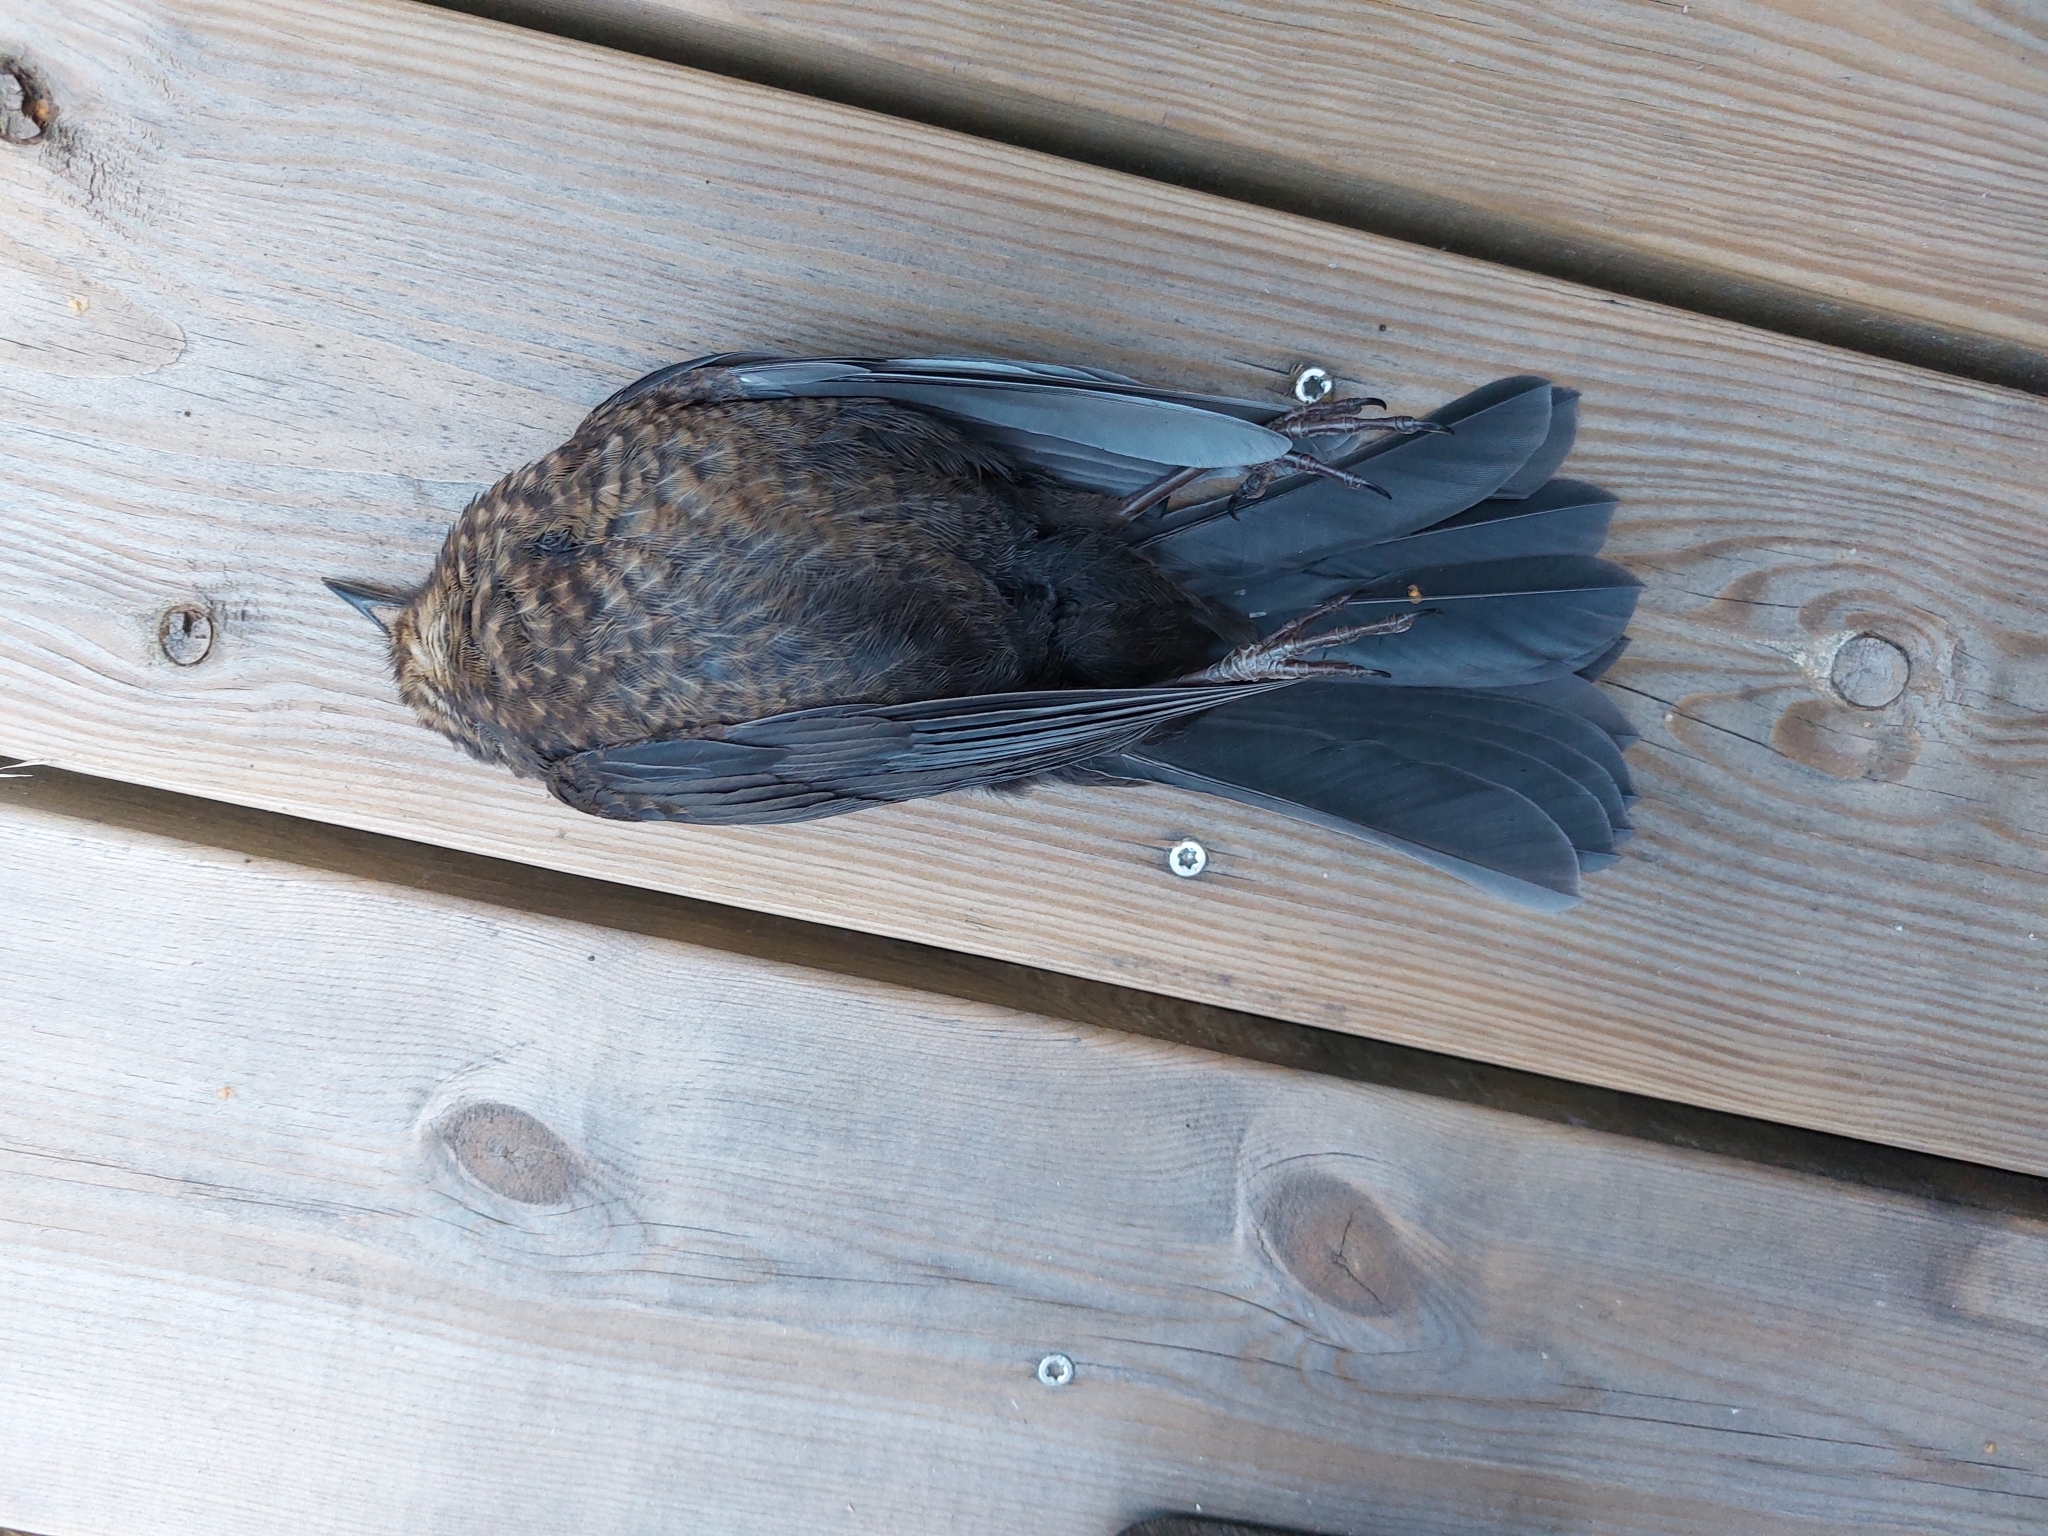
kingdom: Animalia
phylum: Chordata
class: Aves
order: Passeriformes
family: Turdidae
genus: Turdus
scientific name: Turdus merula
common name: Common blackbird
